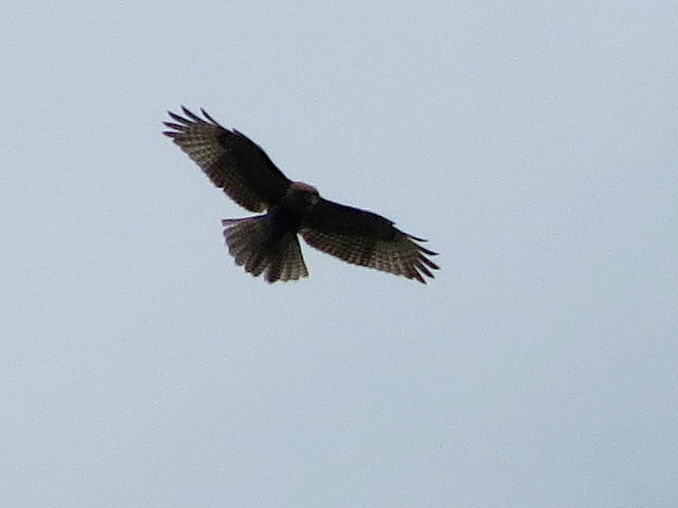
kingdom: Animalia
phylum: Chordata
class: Aves
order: Accipitriformes
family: Accipitridae
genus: Buteo
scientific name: Buteo jamaicensis
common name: Red-tailed hawk
